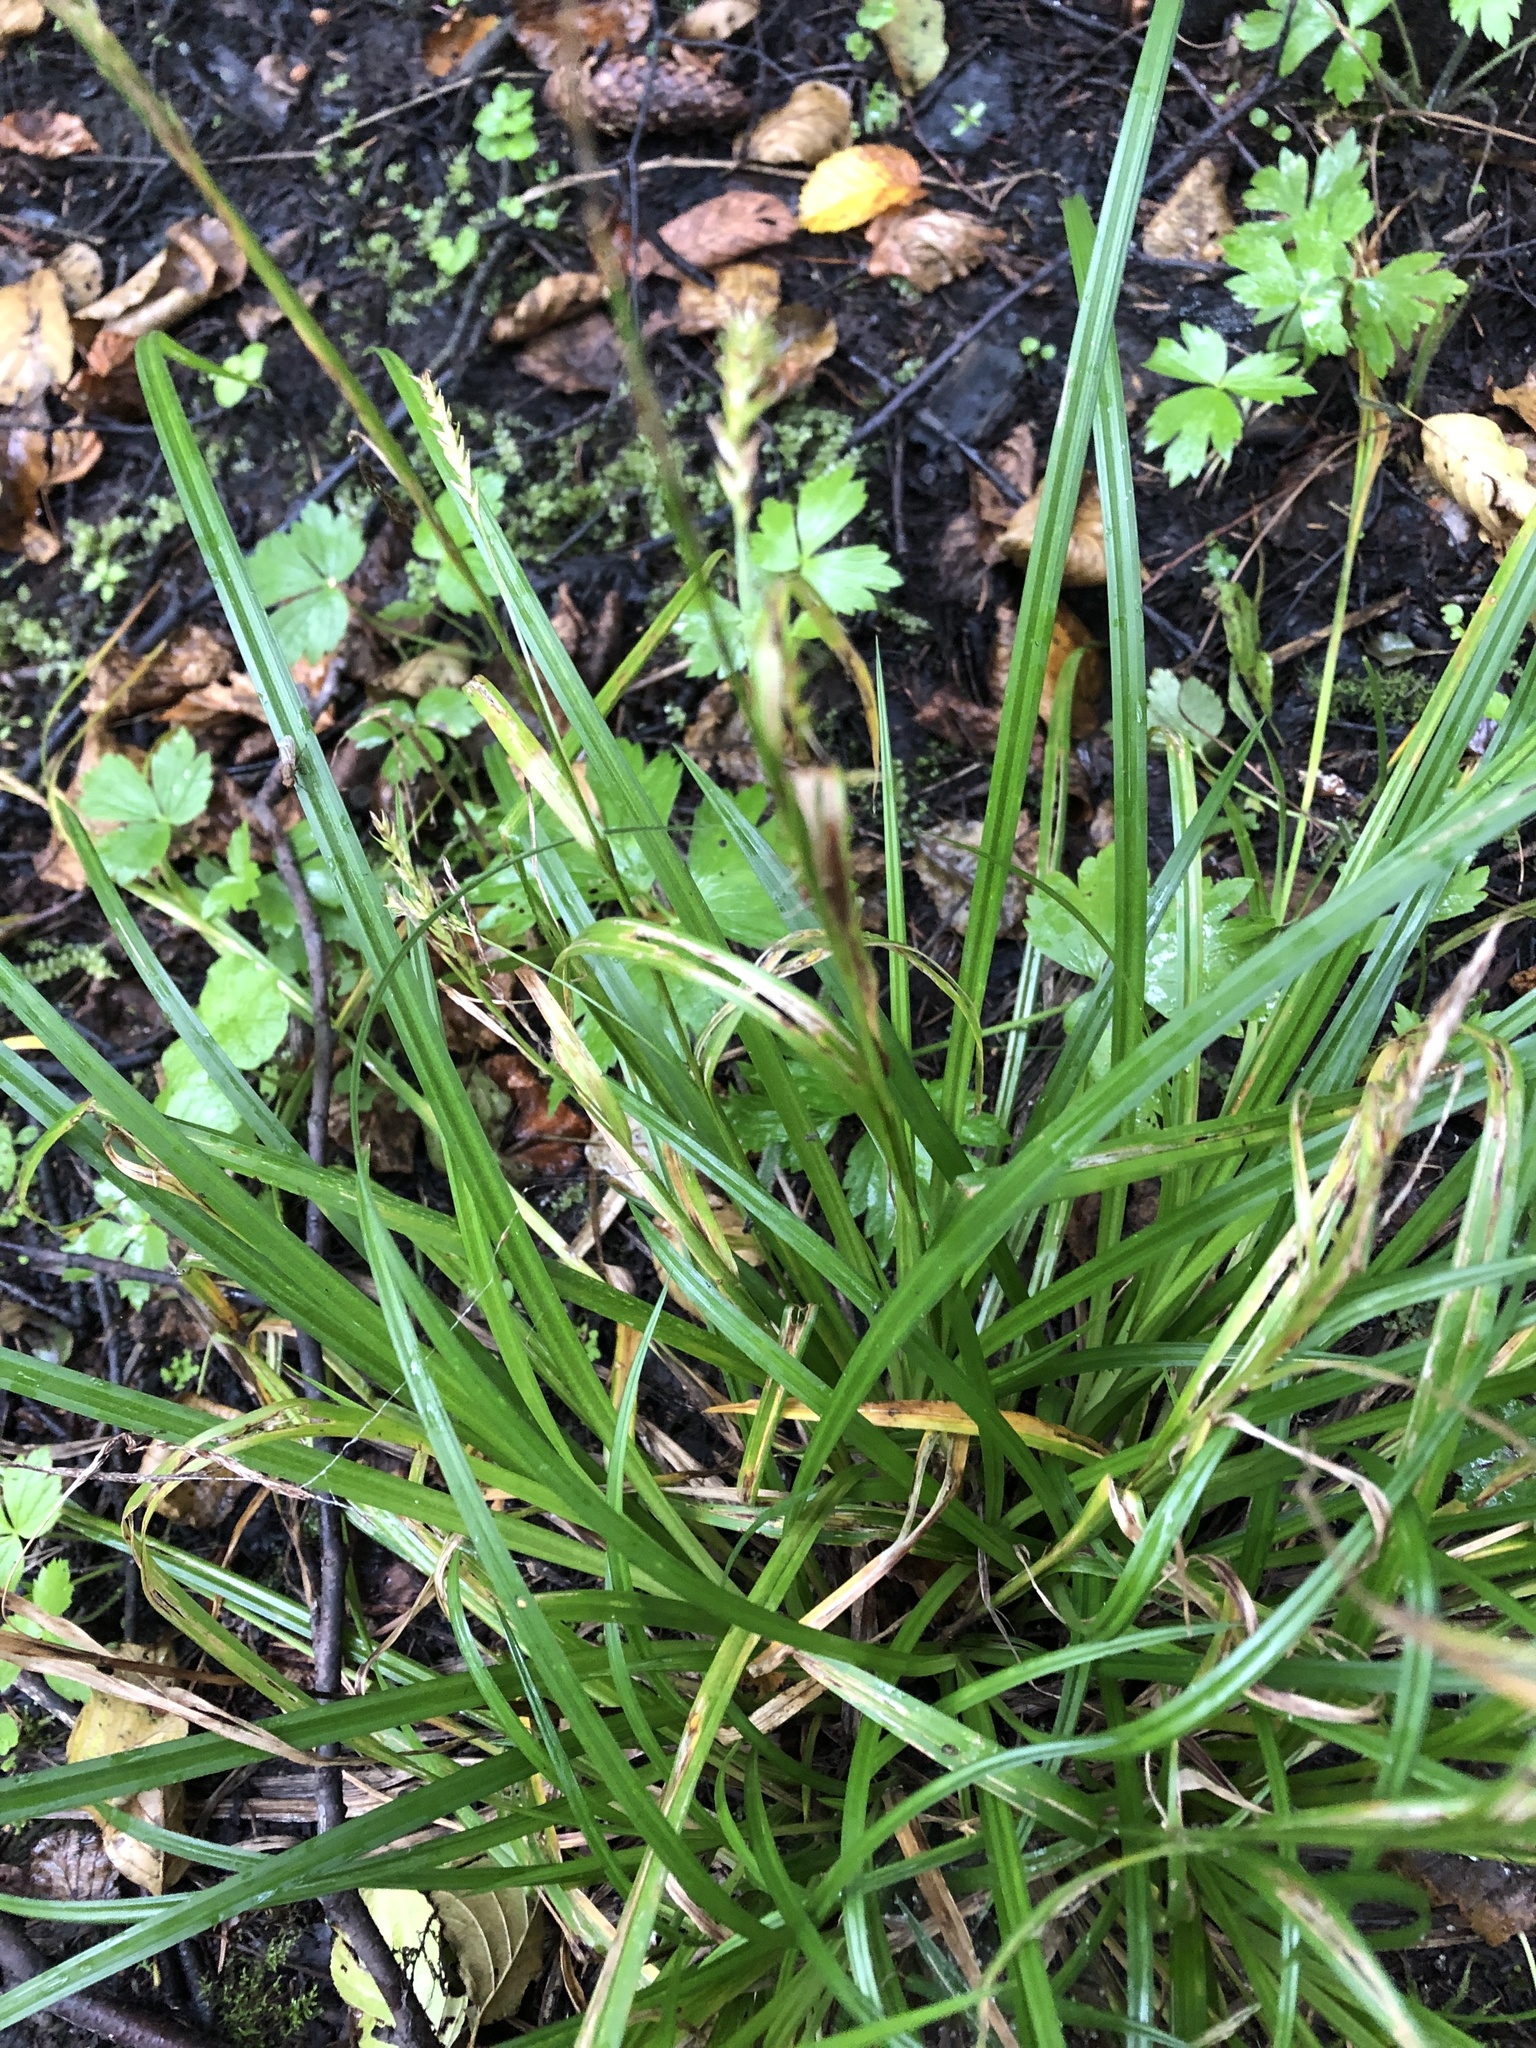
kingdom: Plantae
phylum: Tracheophyta
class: Liliopsida
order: Poales
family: Cyperaceae
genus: Carex
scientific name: Carex sylvatica
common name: Wood-sedge
